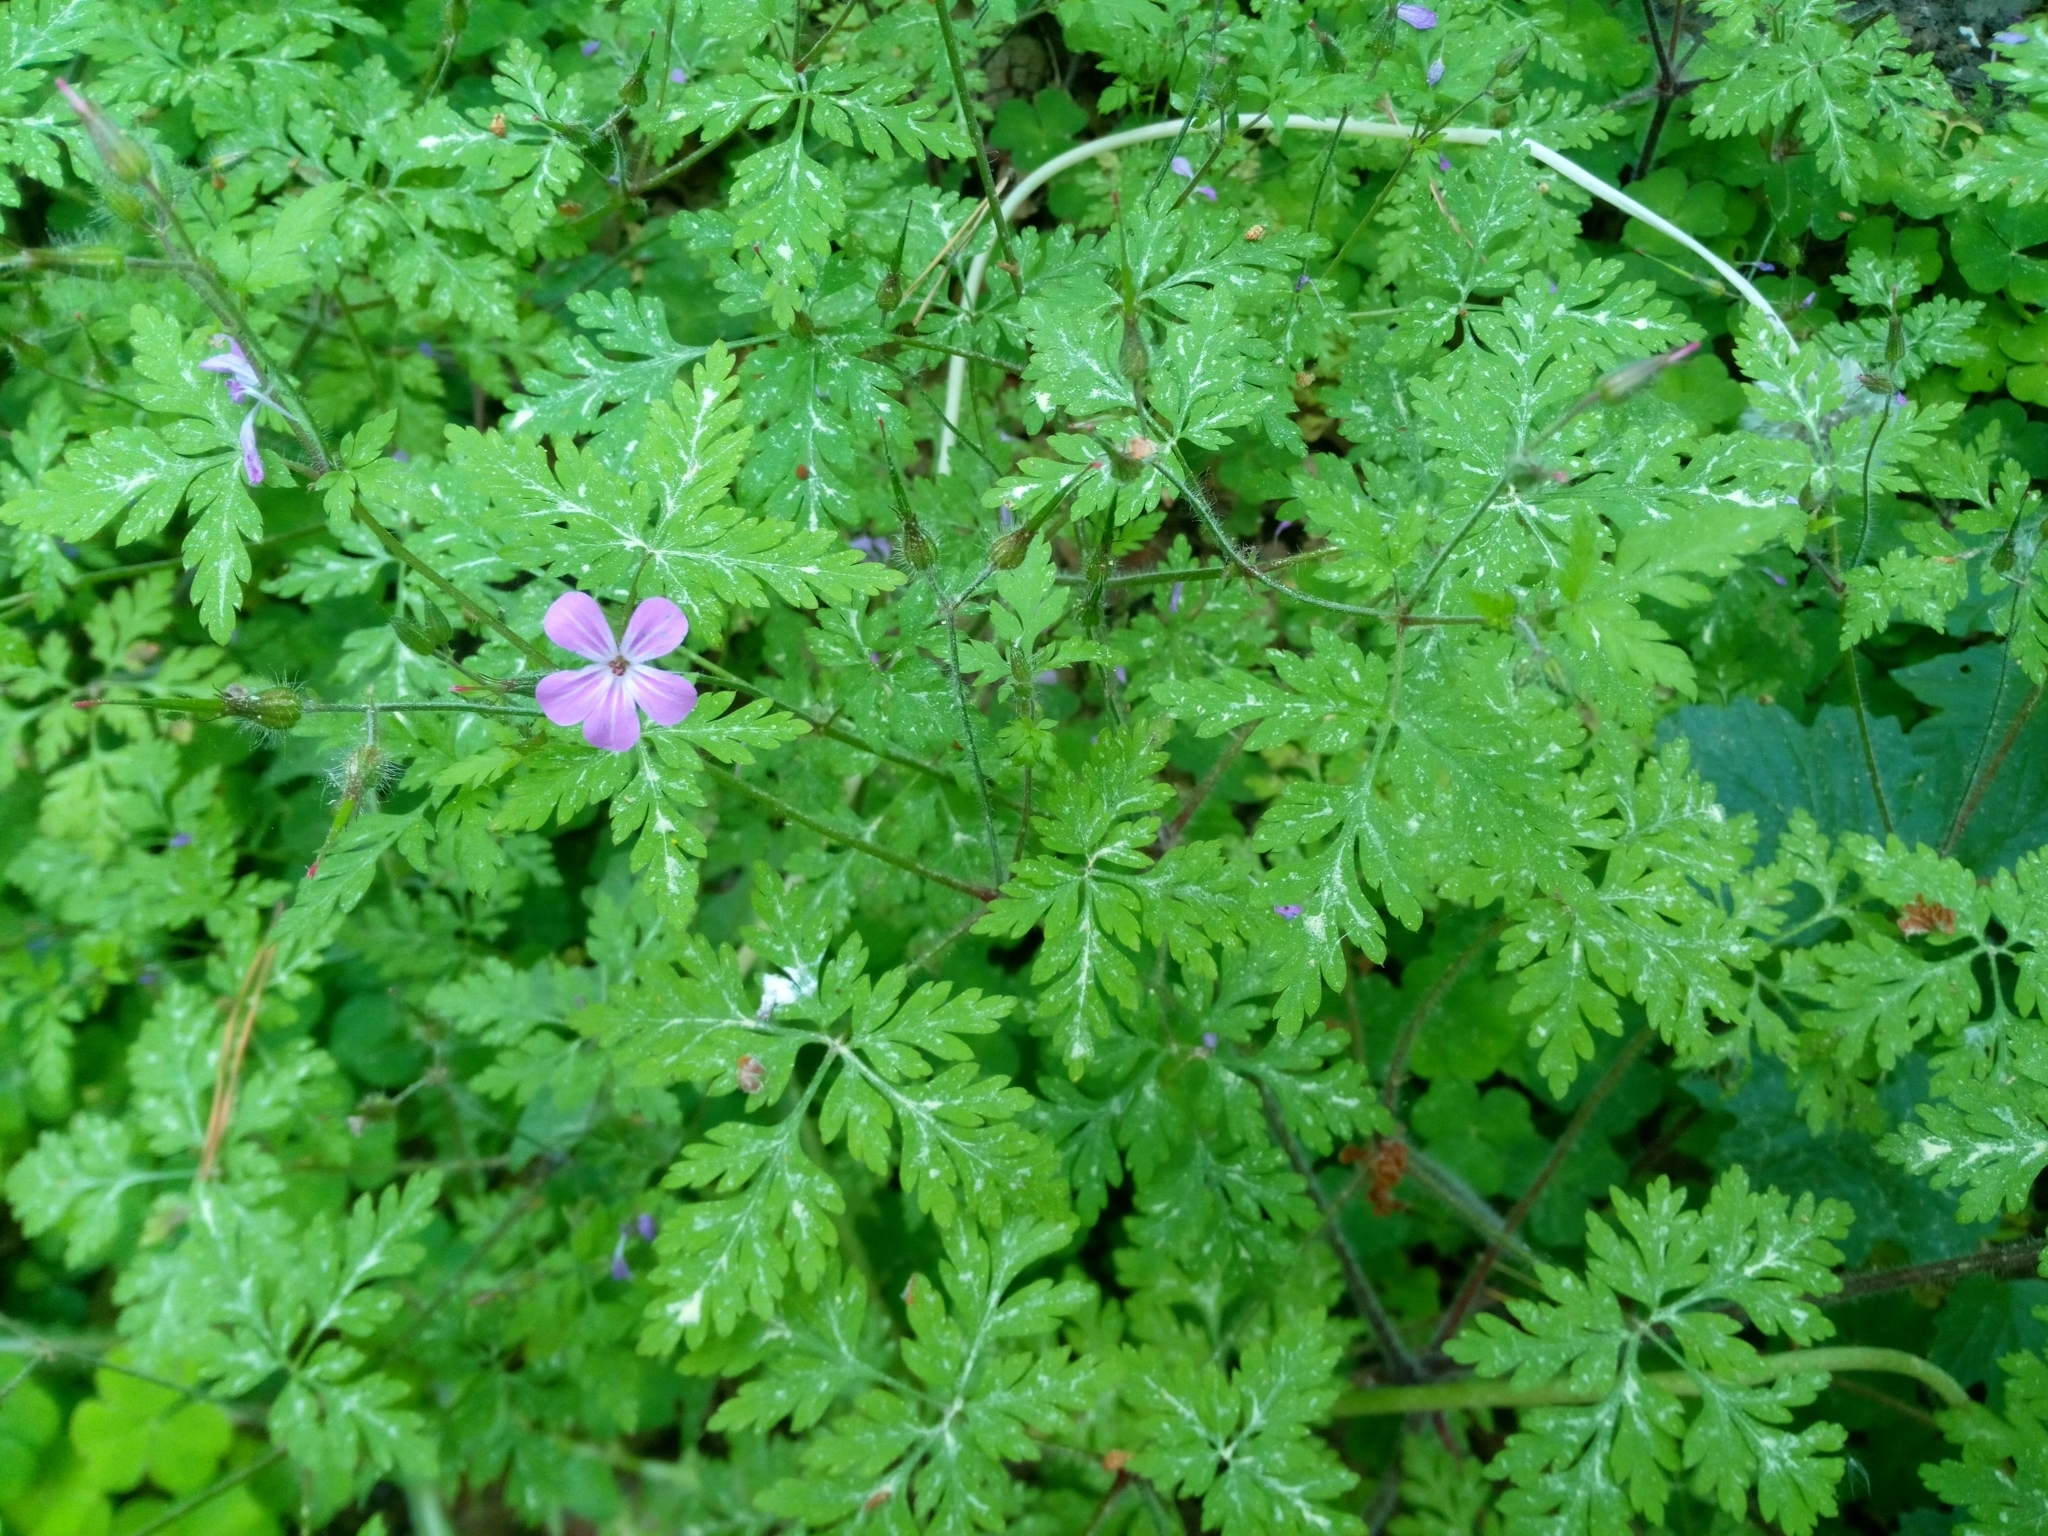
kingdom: Plantae
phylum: Tracheophyta
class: Magnoliopsida
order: Geraniales
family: Geraniaceae
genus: Geranium
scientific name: Geranium robertianum
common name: Herb-robert
